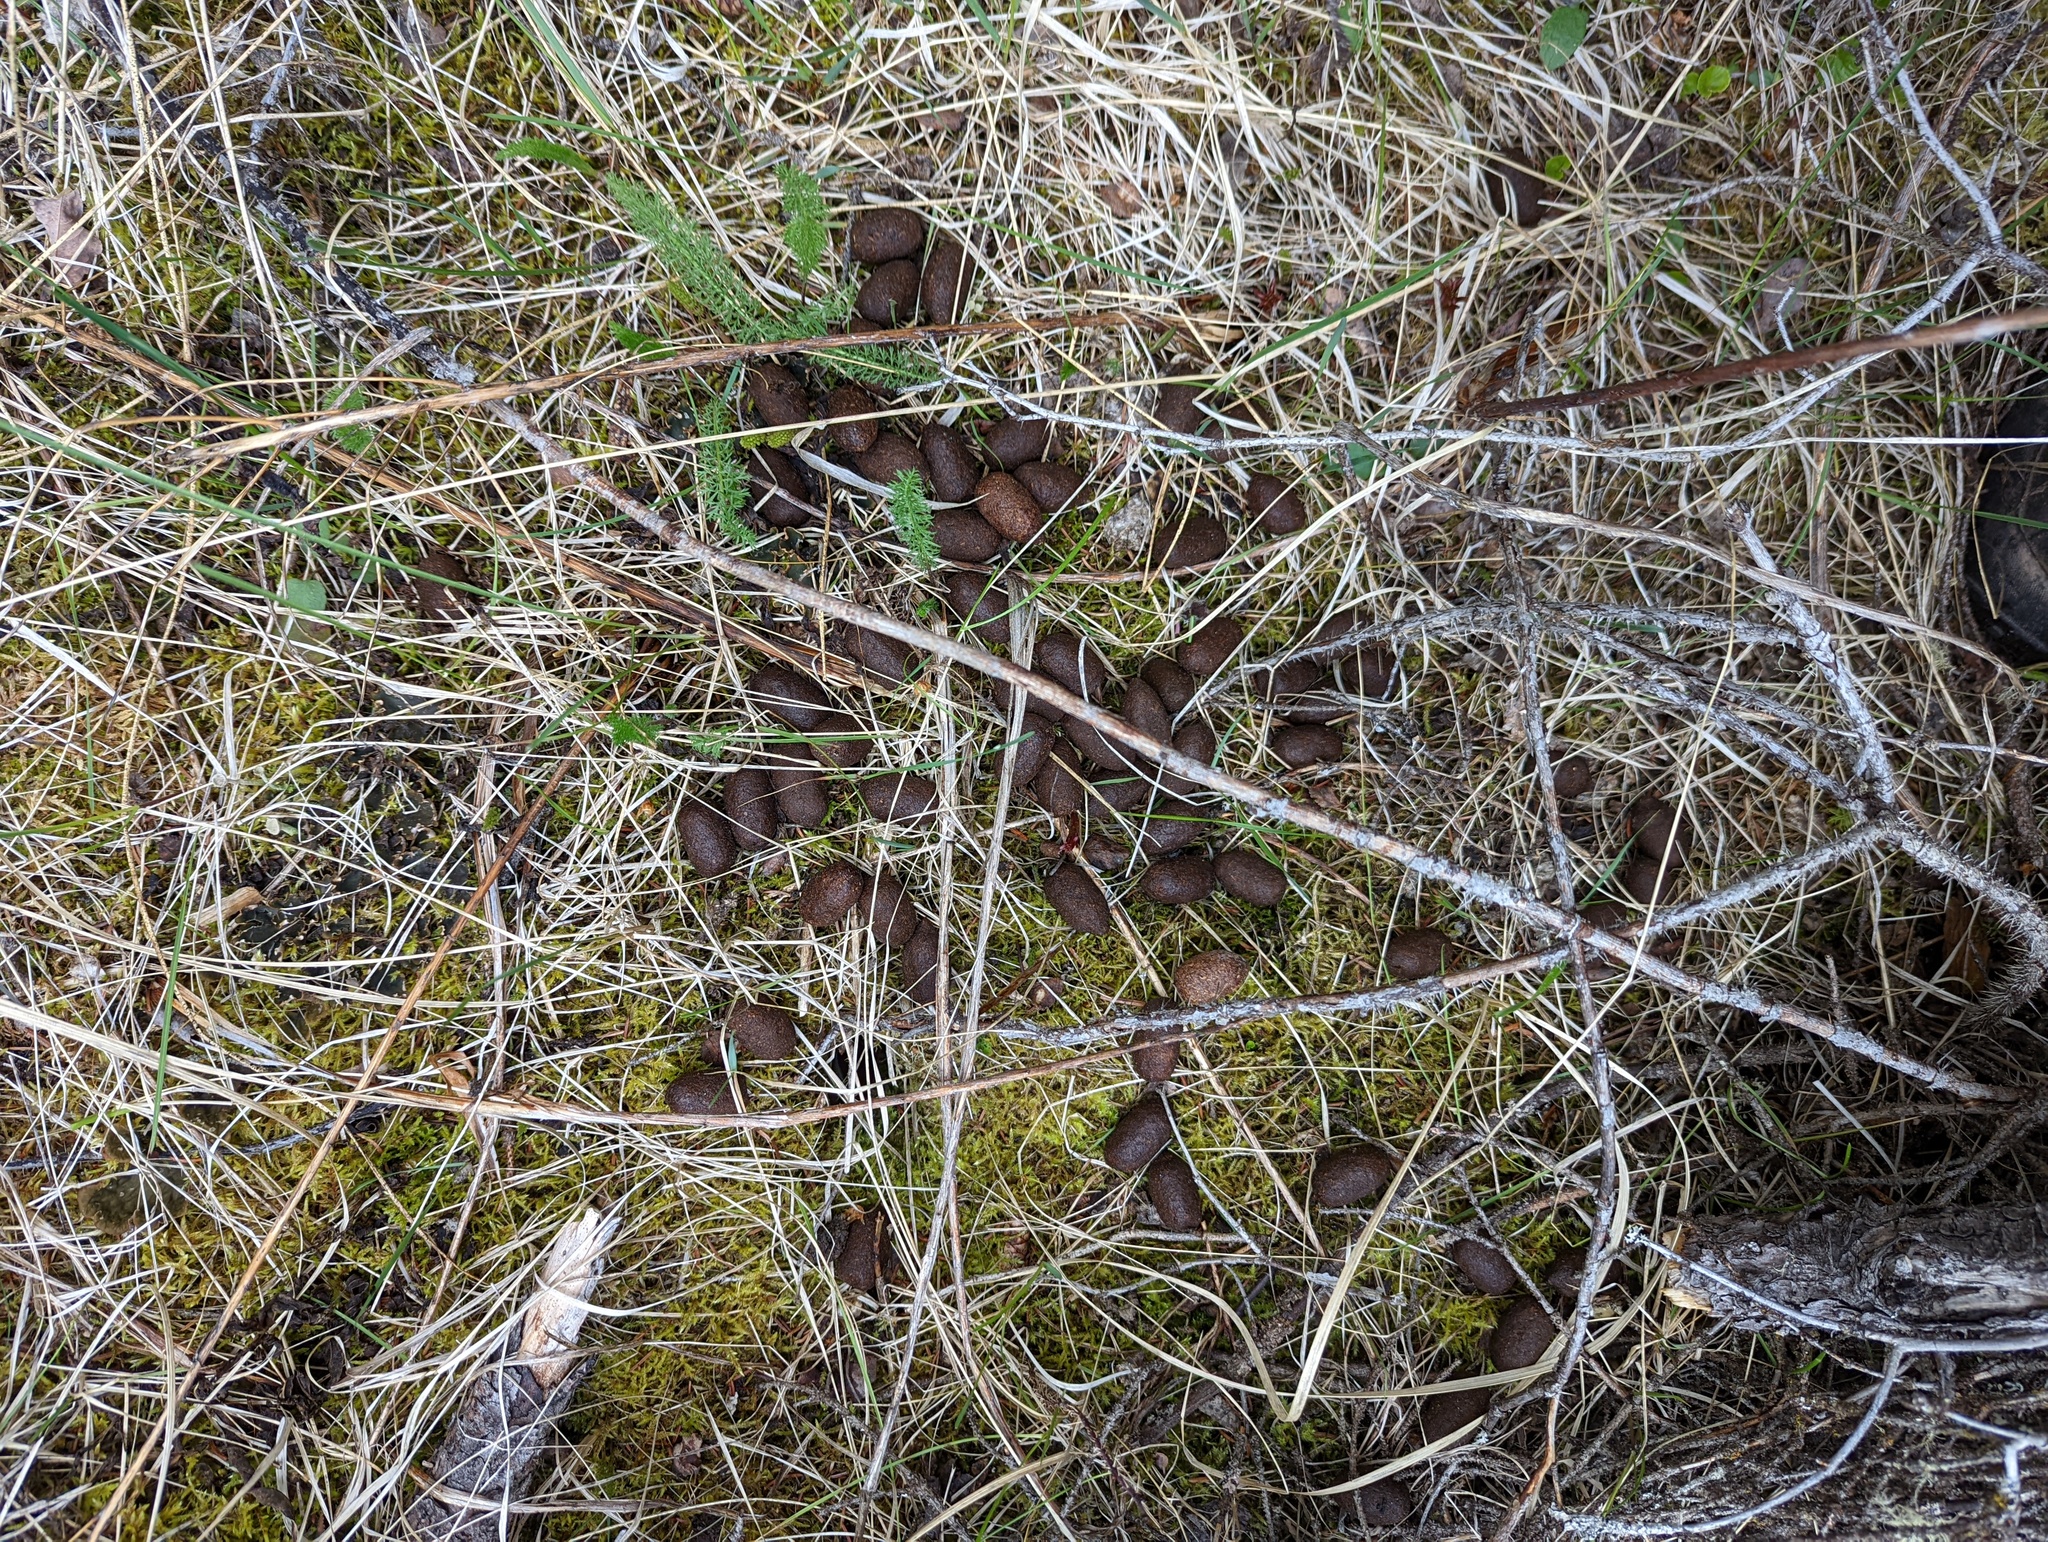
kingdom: Animalia
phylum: Chordata
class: Mammalia
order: Artiodactyla
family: Cervidae
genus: Alces
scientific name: Alces alces
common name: Moose
